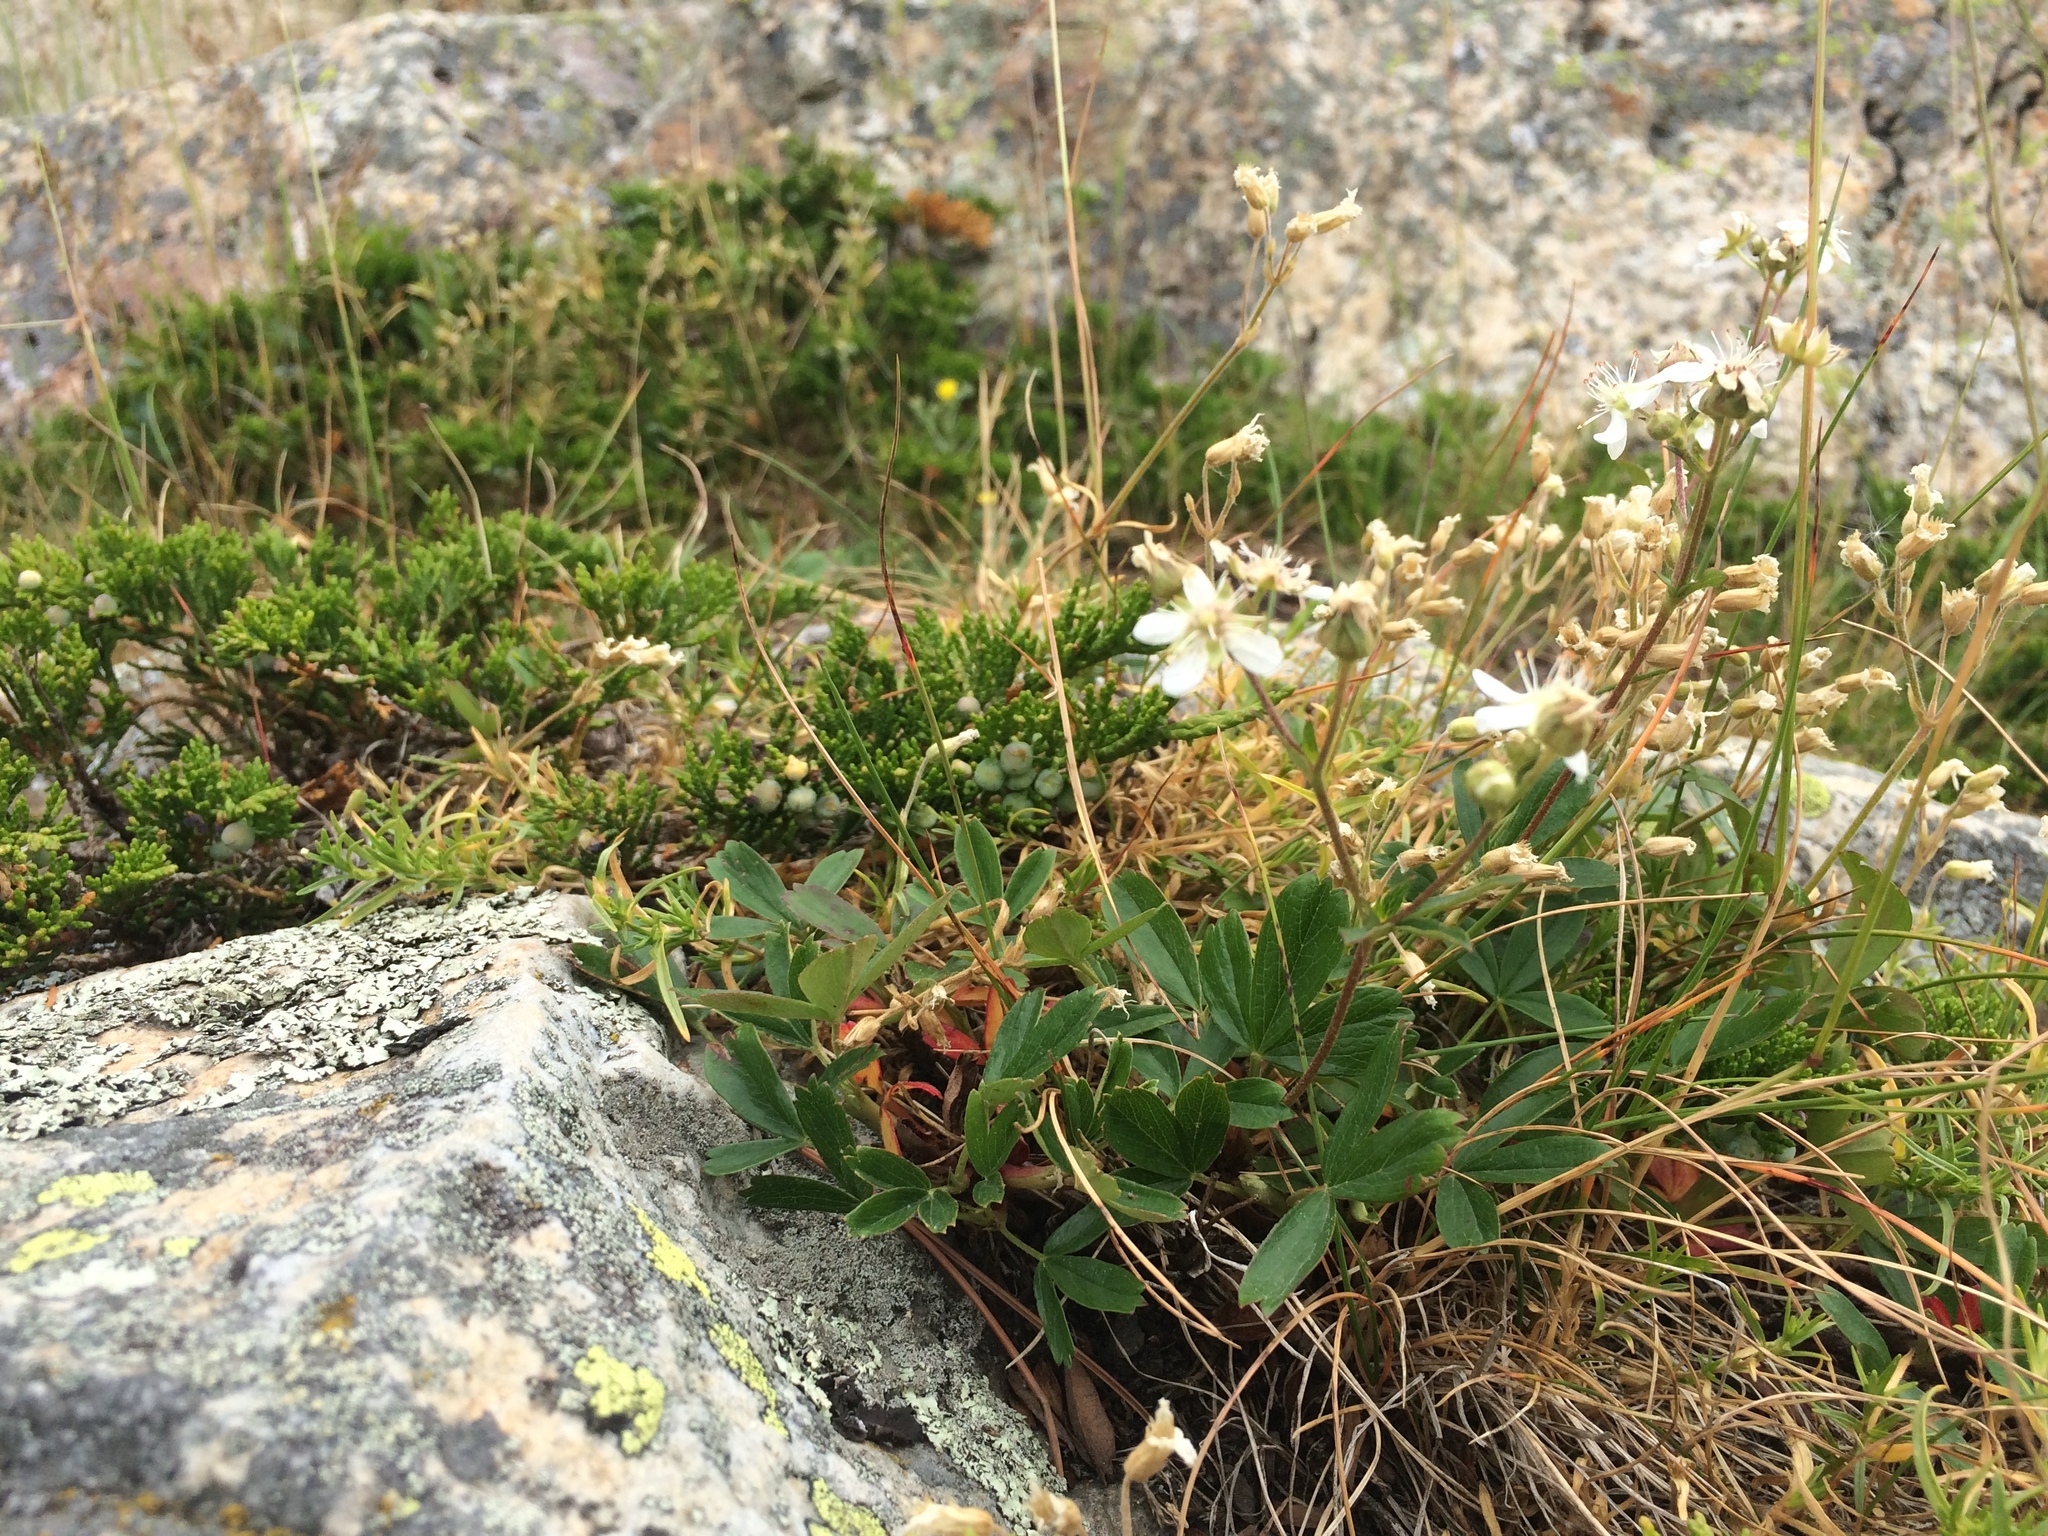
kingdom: Plantae
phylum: Tracheophyta
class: Magnoliopsida
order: Rosales
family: Rosaceae
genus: Sibbaldia
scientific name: Sibbaldia tridentata
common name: Three-toothed cinquefoil
